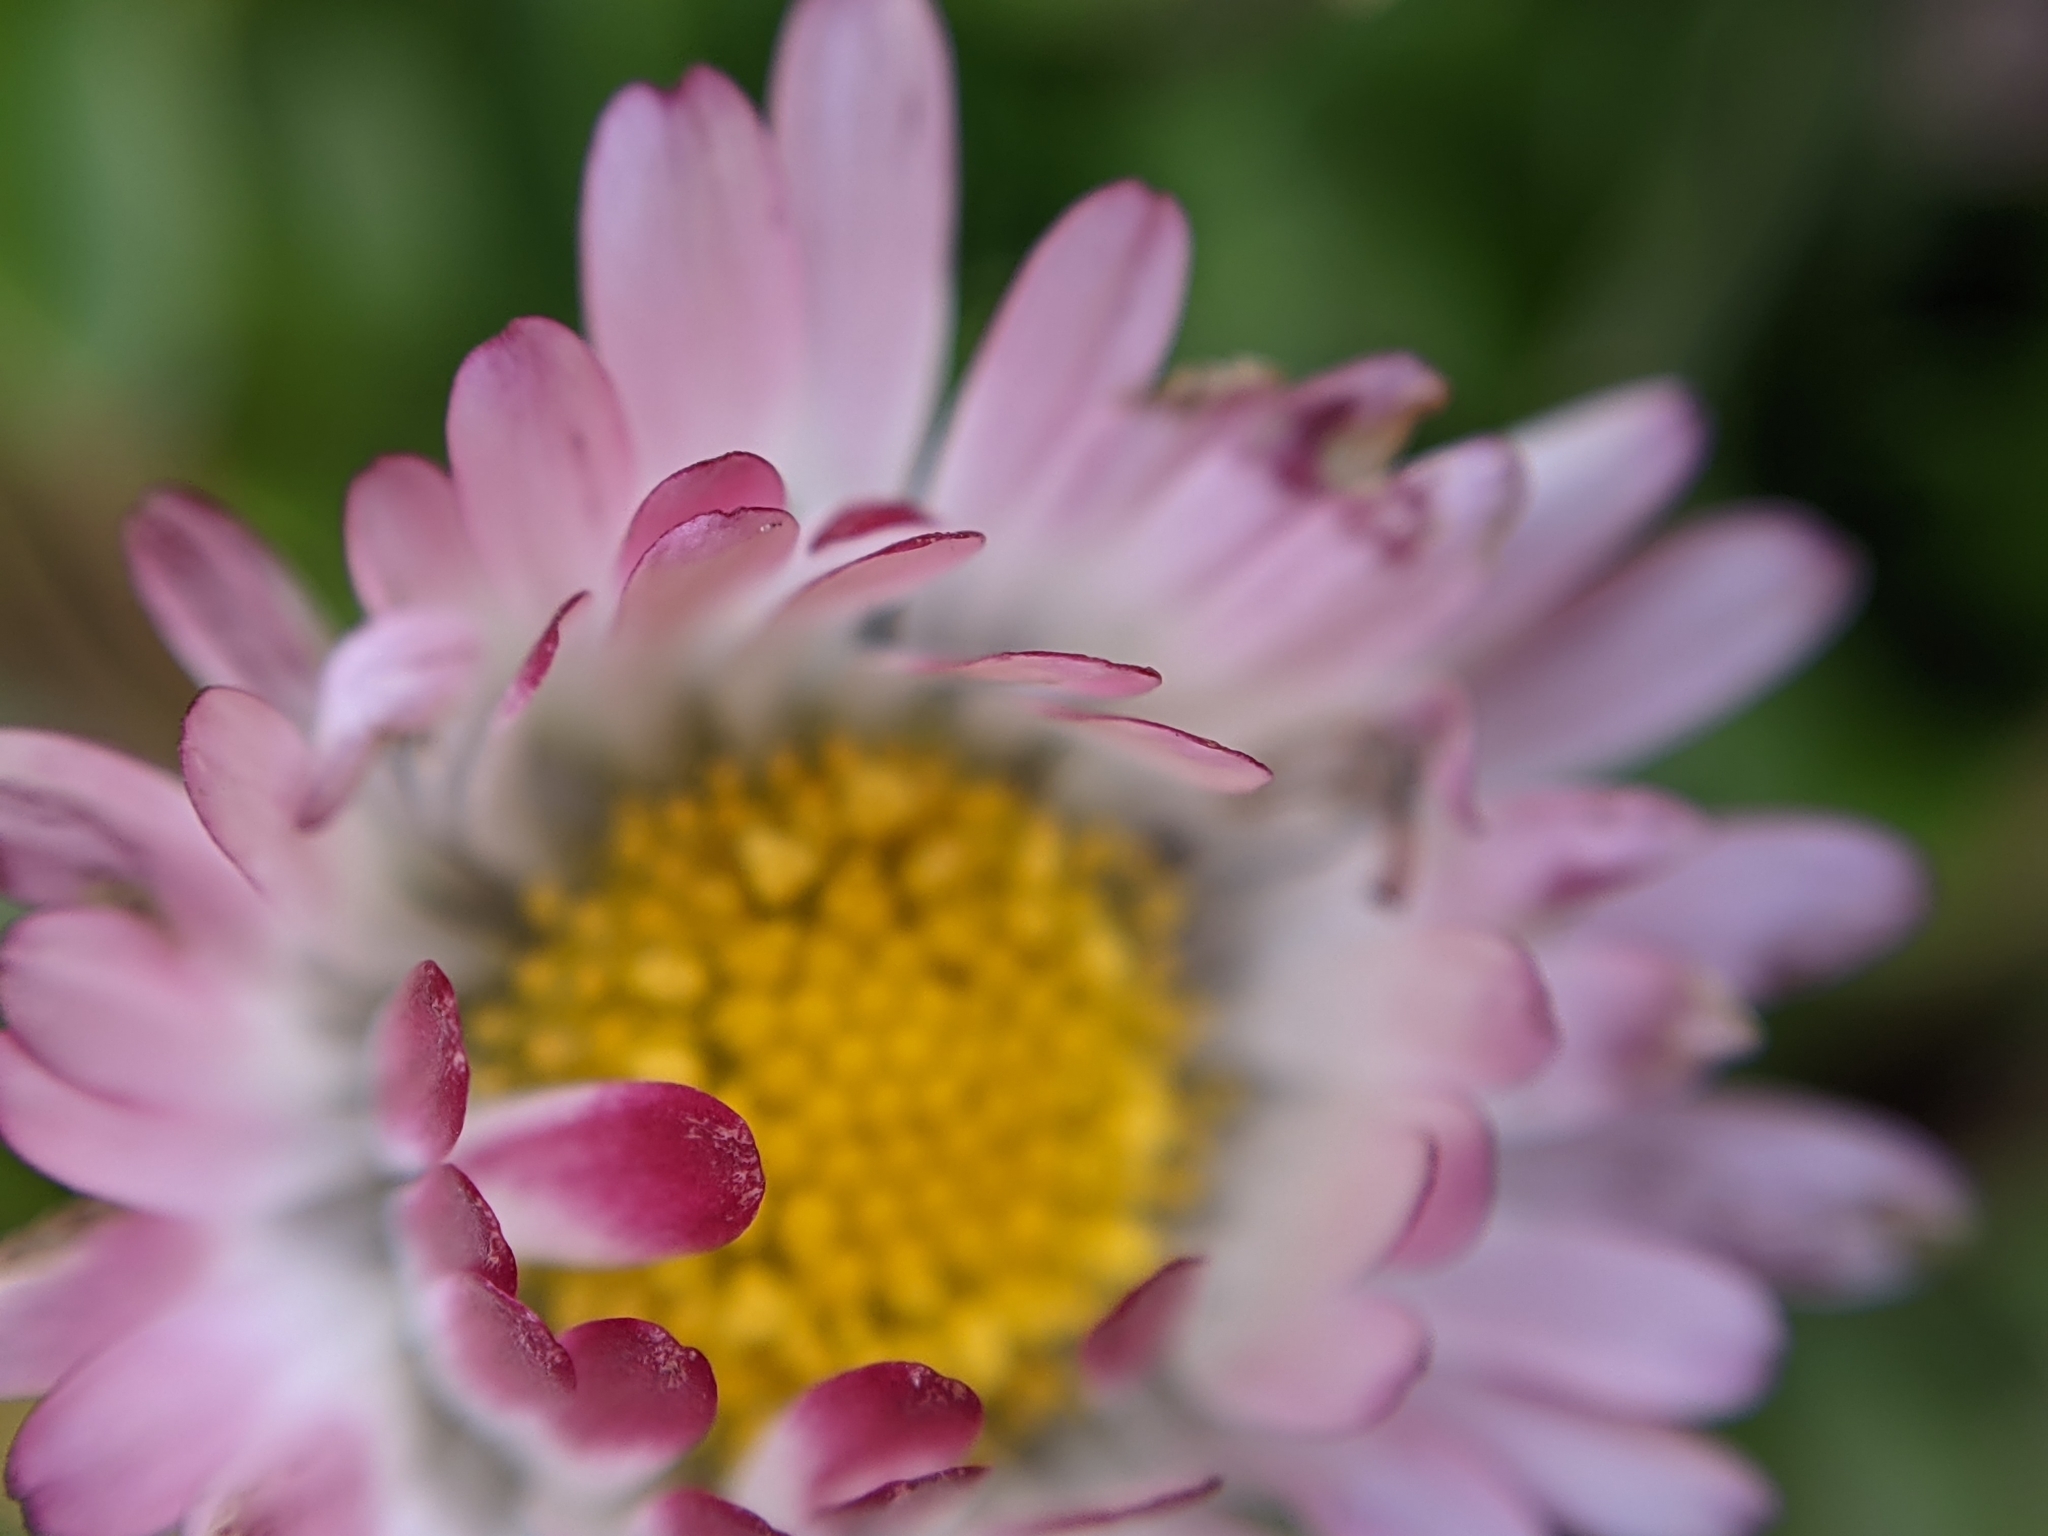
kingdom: Plantae
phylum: Tracheophyta
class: Magnoliopsida
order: Asterales
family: Asteraceae
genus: Bellis
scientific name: Bellis perennis
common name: Lawndaisy
